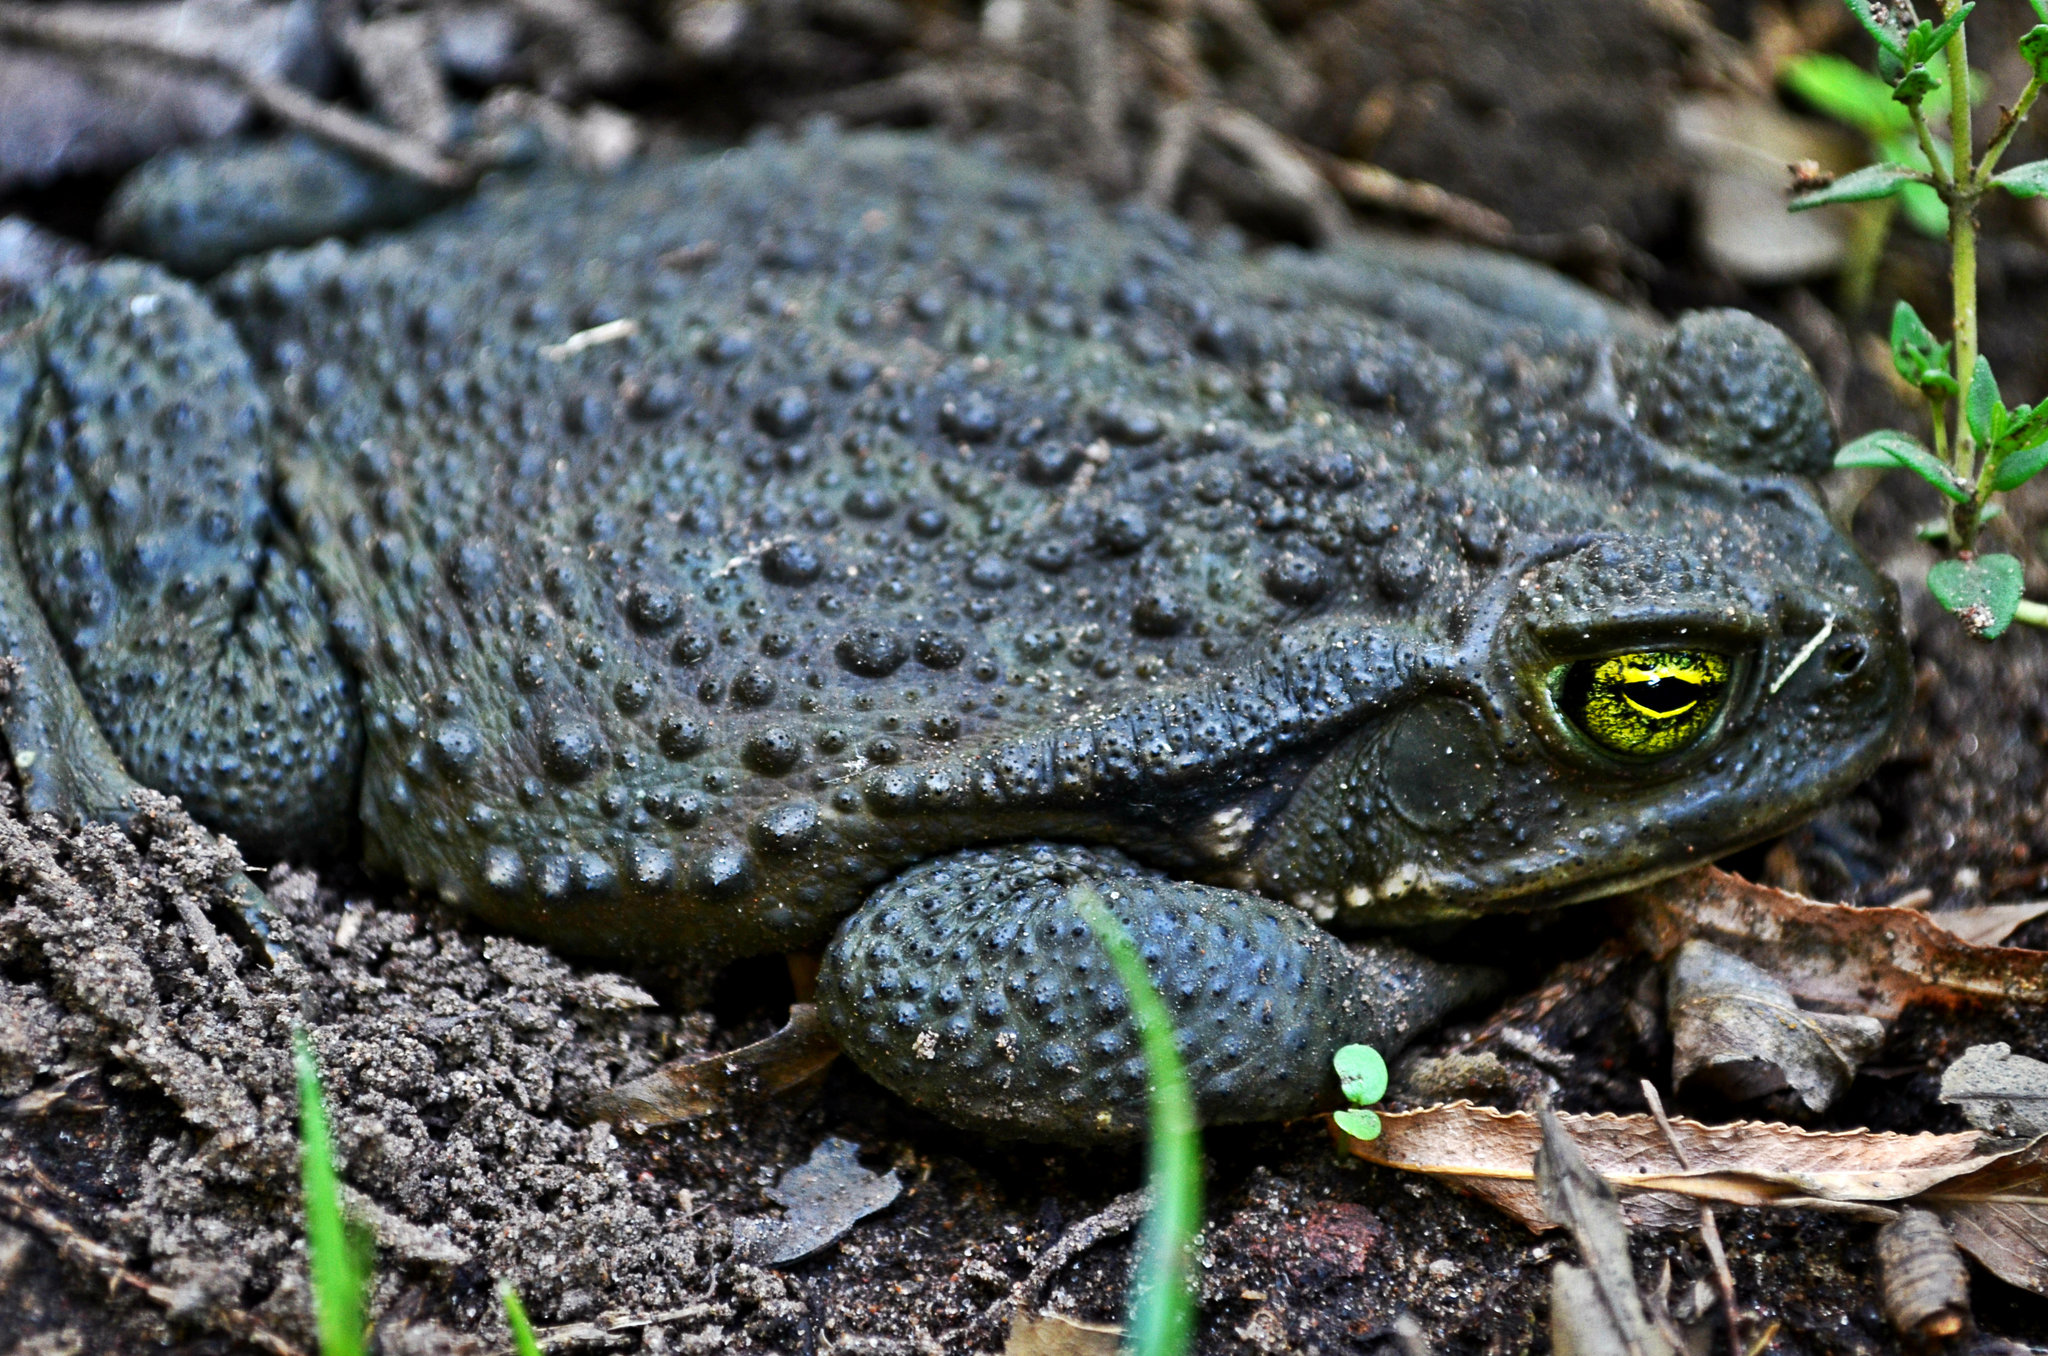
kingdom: Animalia
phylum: Chordata
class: Amphibia
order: Anura
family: Bufonidae
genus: Rhinella
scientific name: Rhinella arenarum
